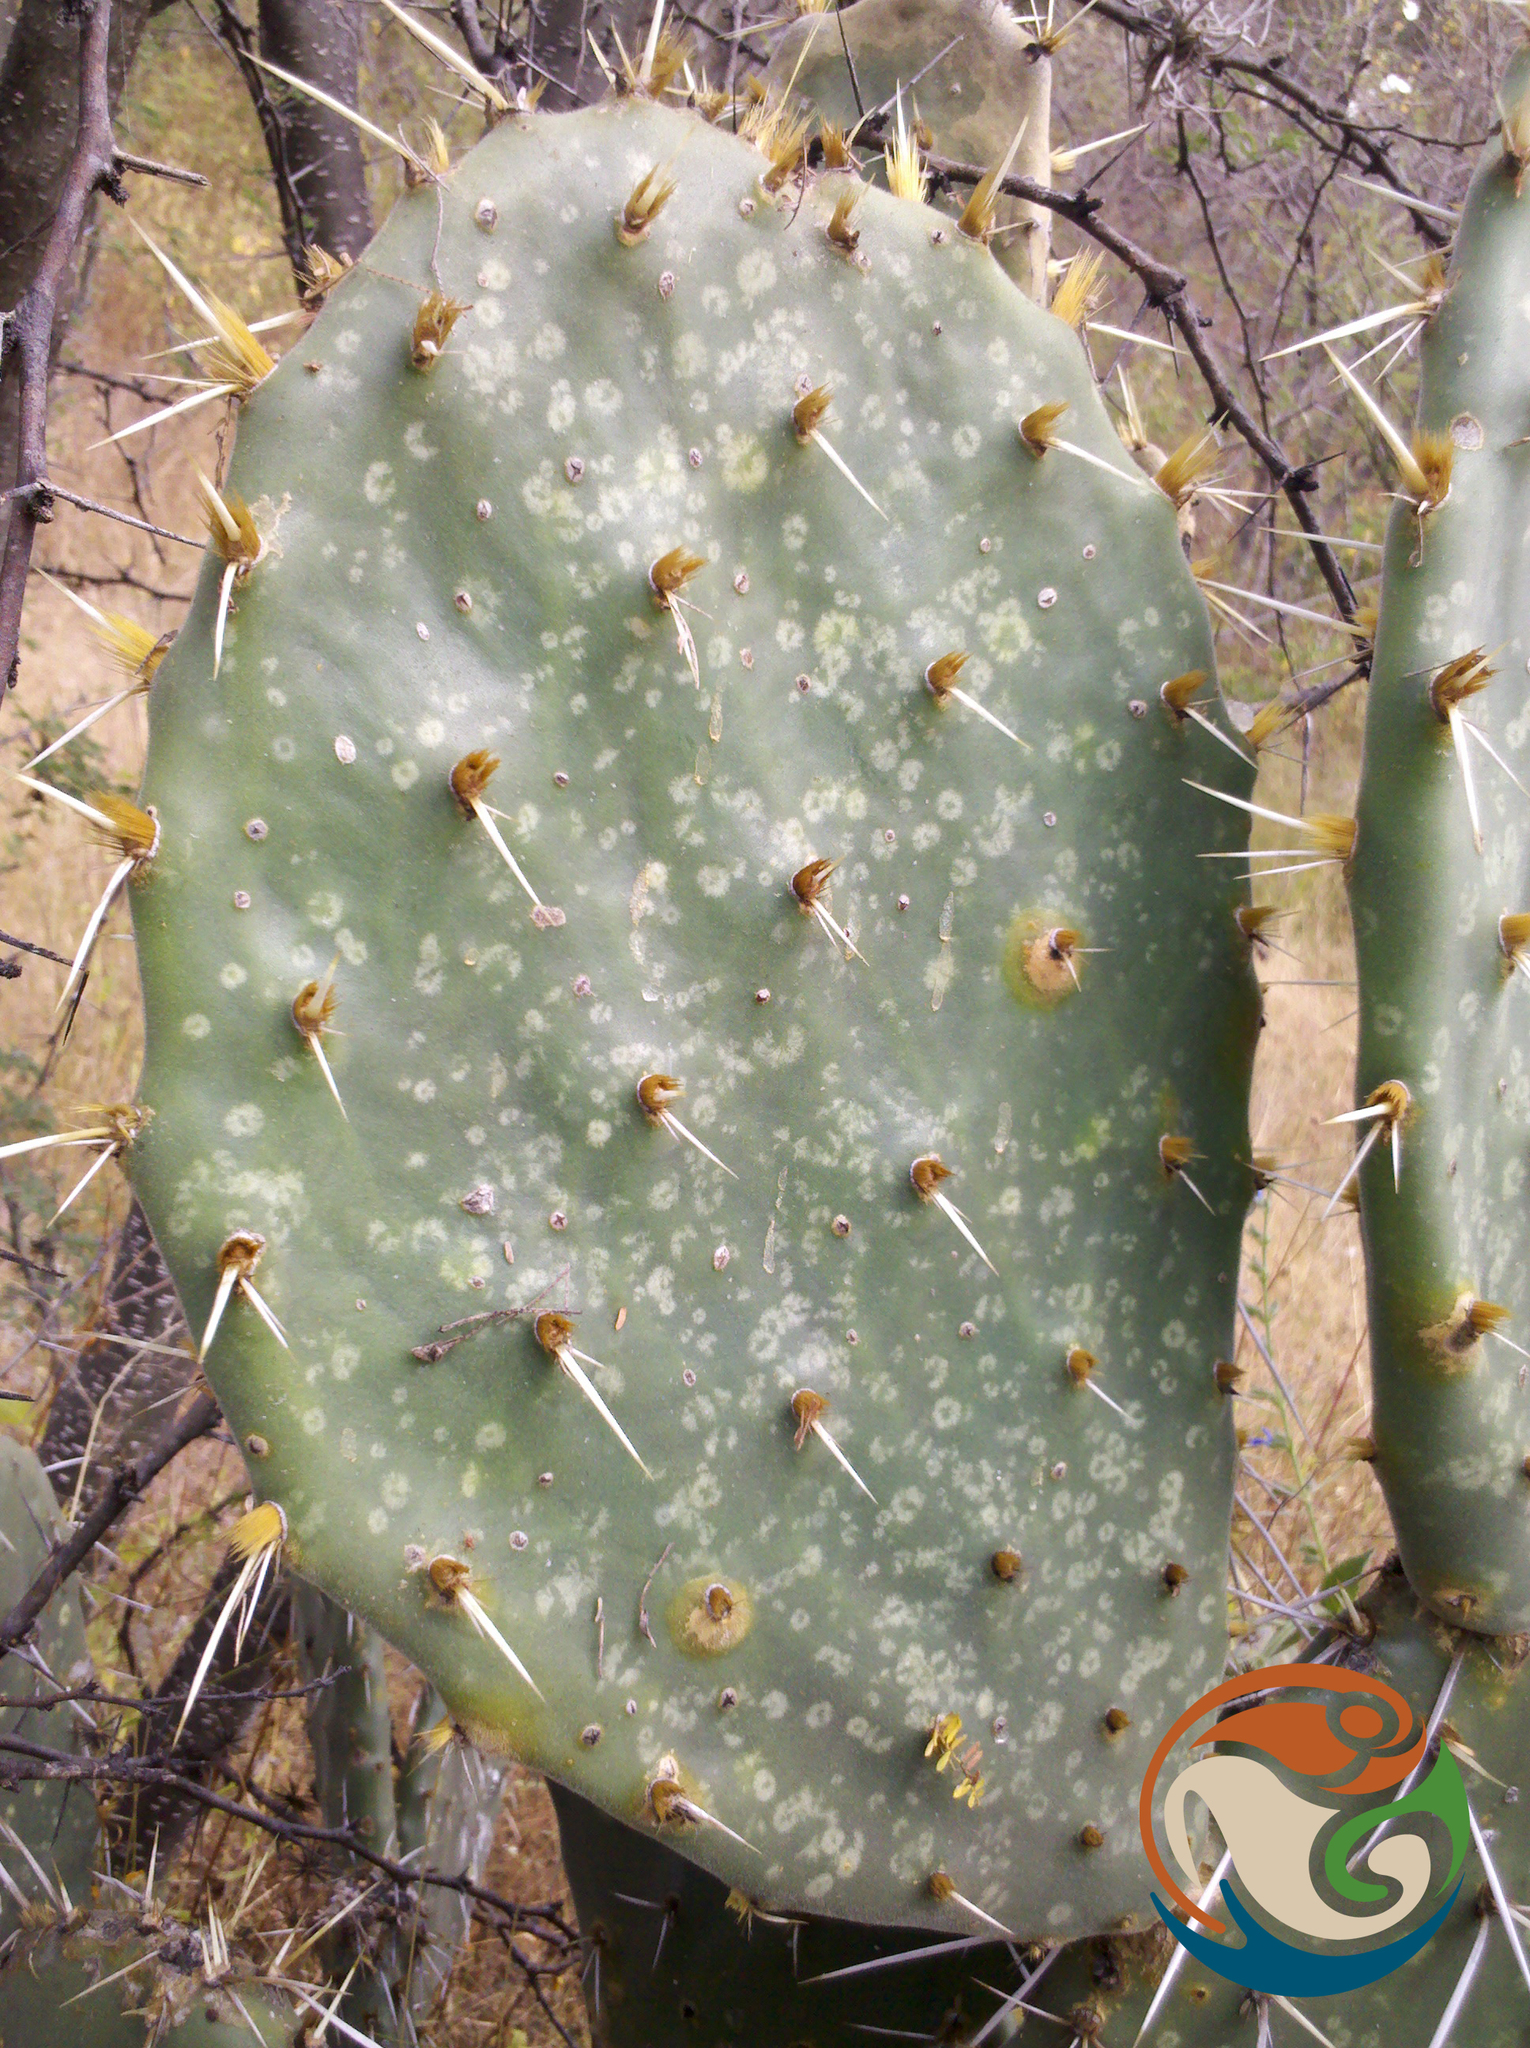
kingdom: Plantae
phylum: Tracheophyta
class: Magnoliopsida
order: Caryophyllales
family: Cactaceae
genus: Opuntia
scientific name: Opuntia velutina
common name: Velvet opuntia
